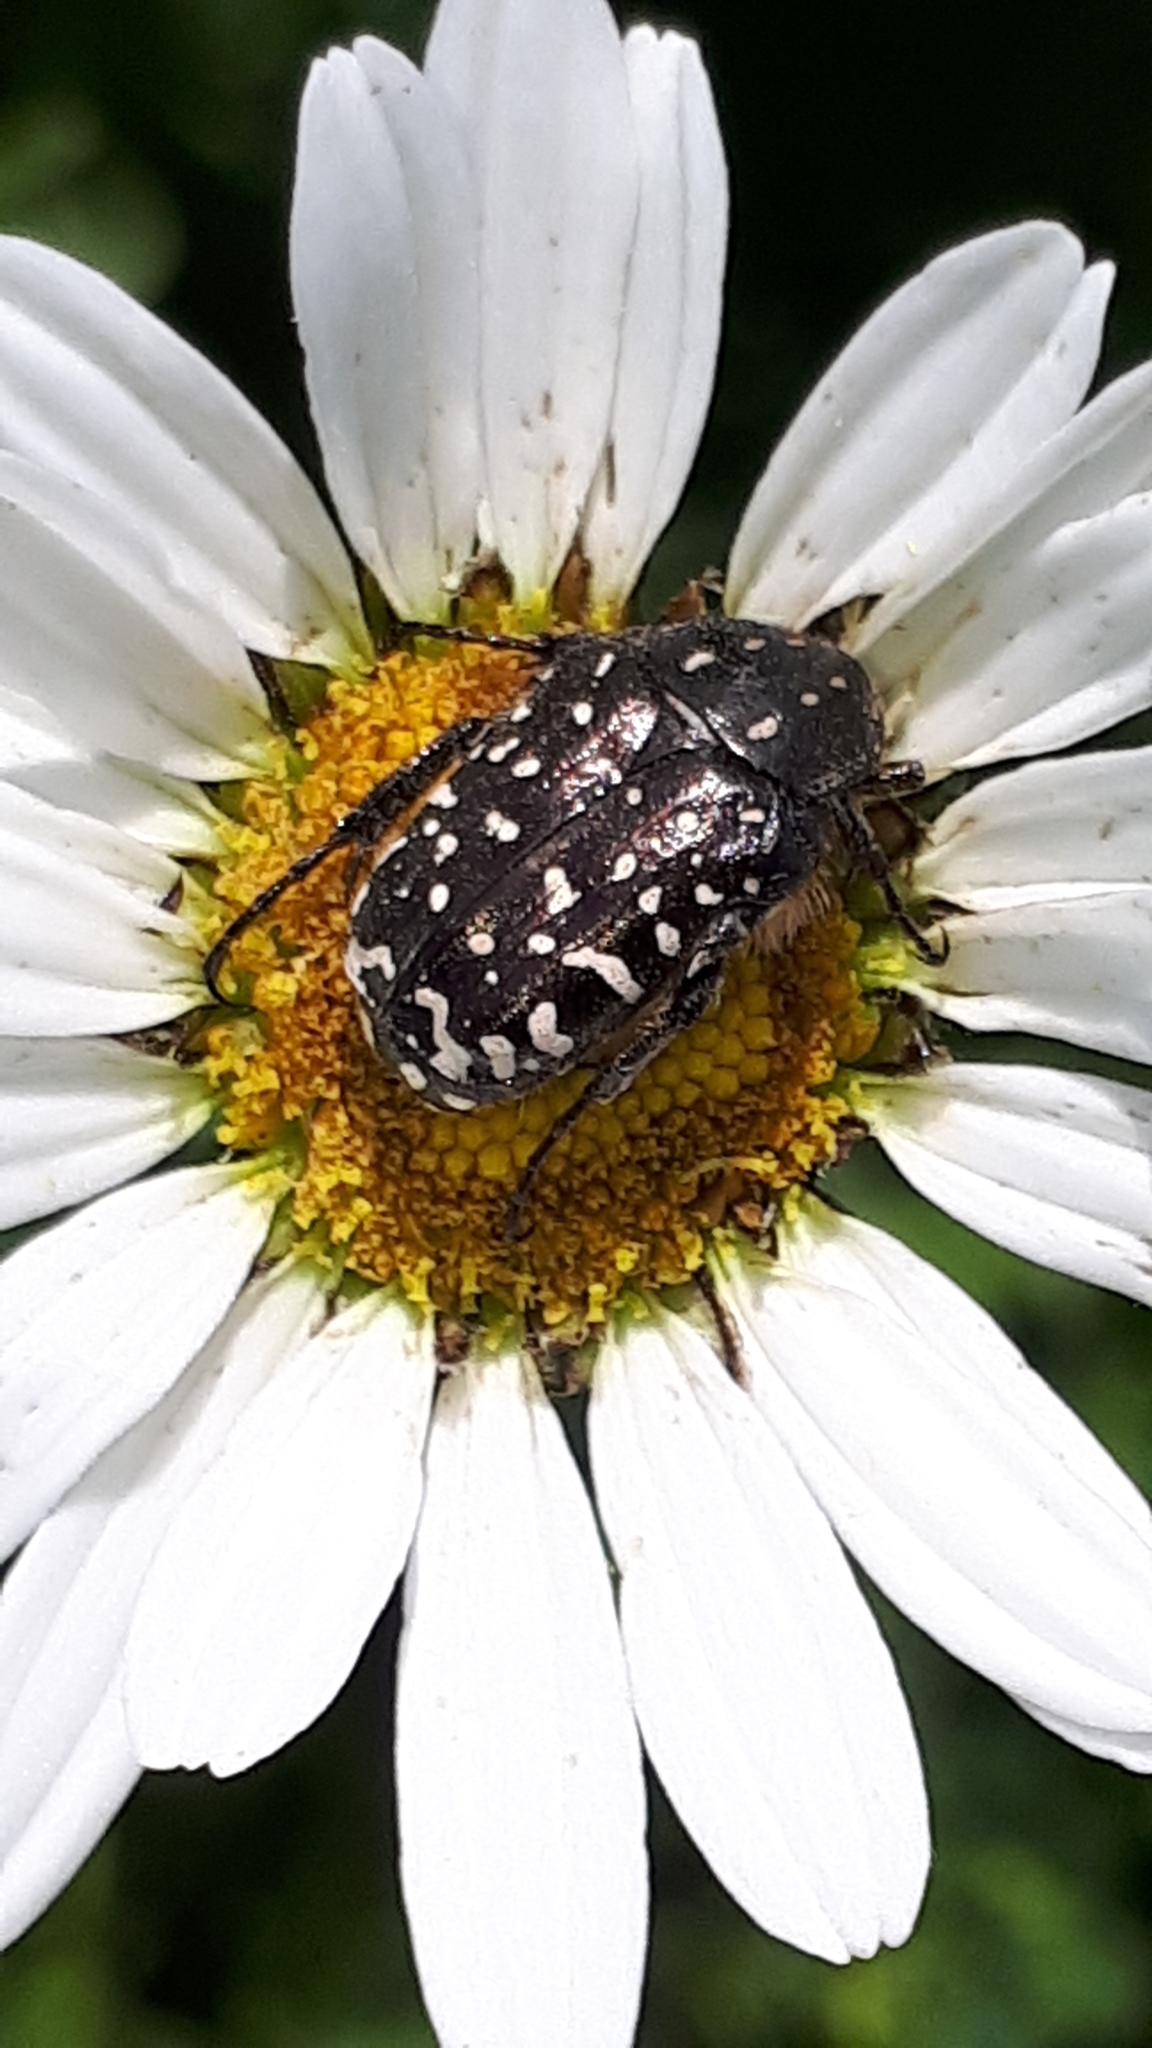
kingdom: Animalia
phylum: Arthropoda
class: Insecta
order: Coleoptera
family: Scarabaeidae
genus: Oxythyrea
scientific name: Oxythyrea funesta
